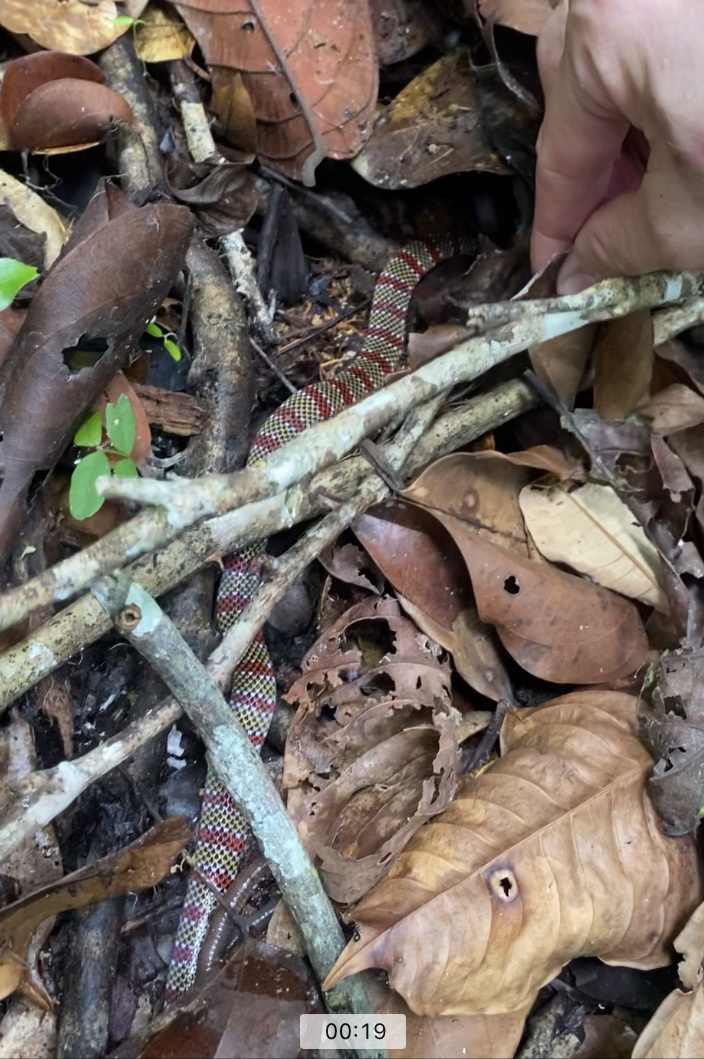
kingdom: Animalia
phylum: Chordata
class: Squamata
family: Elapidae
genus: Micrurus
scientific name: Micrurus langsdorffi
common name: Confused coral snake
